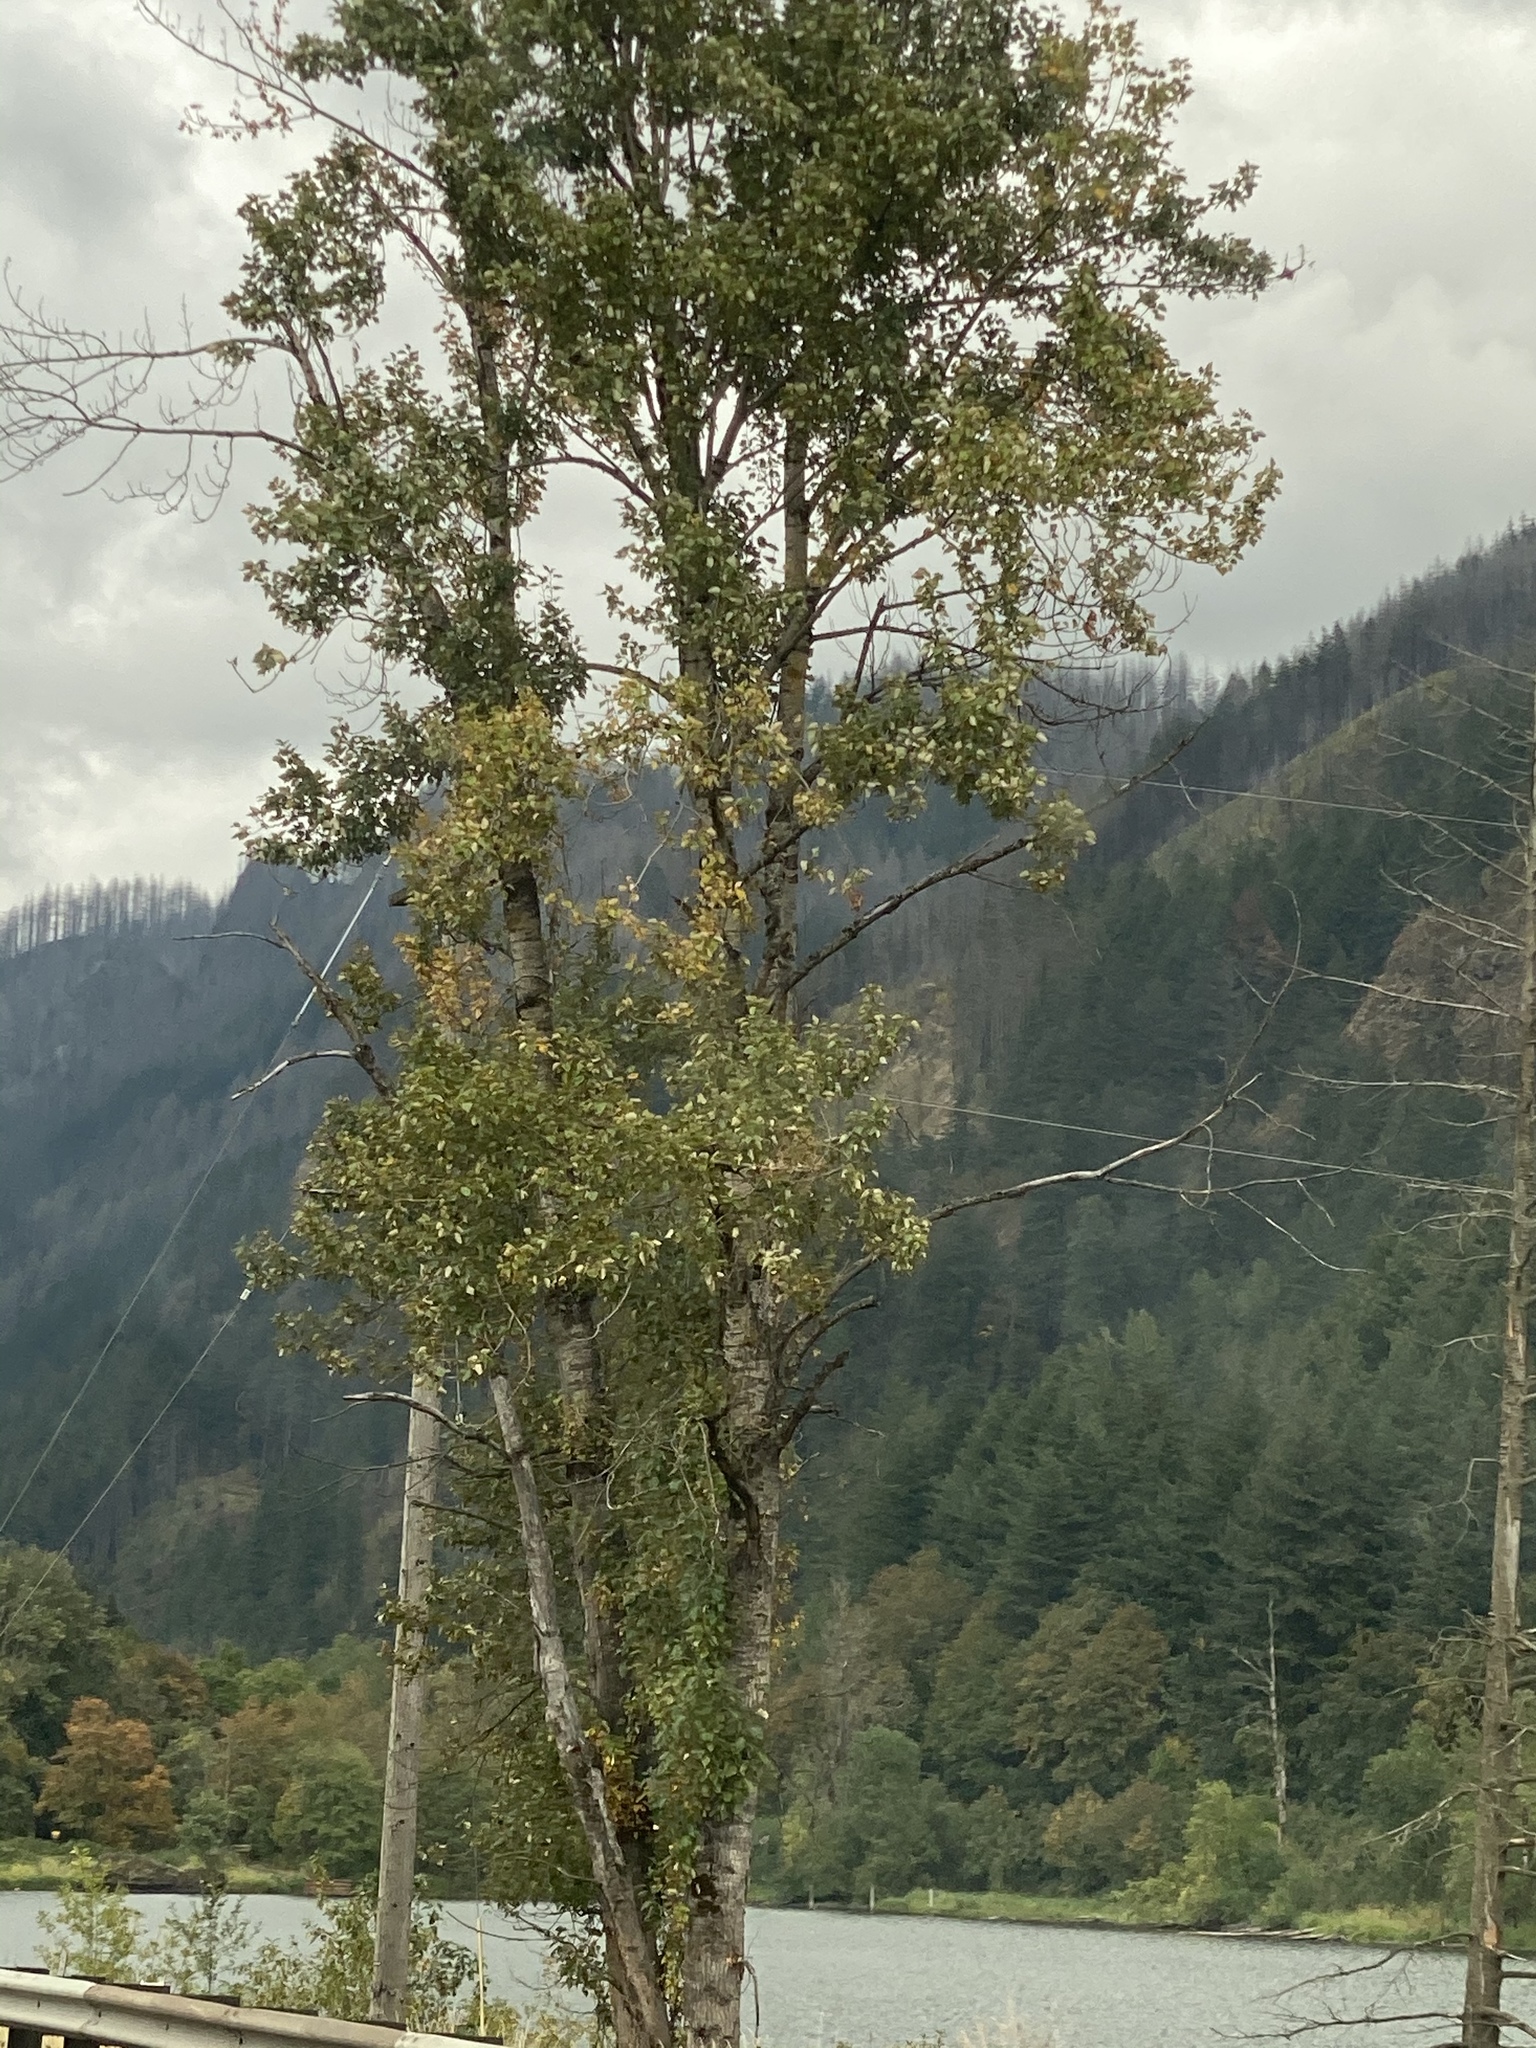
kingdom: Plantae
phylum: Tracheophyta
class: Magnoliopsida
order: Malpighiales
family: Salicaceae
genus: Populus
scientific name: Populus trichocarpa
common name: Black cottonwood
